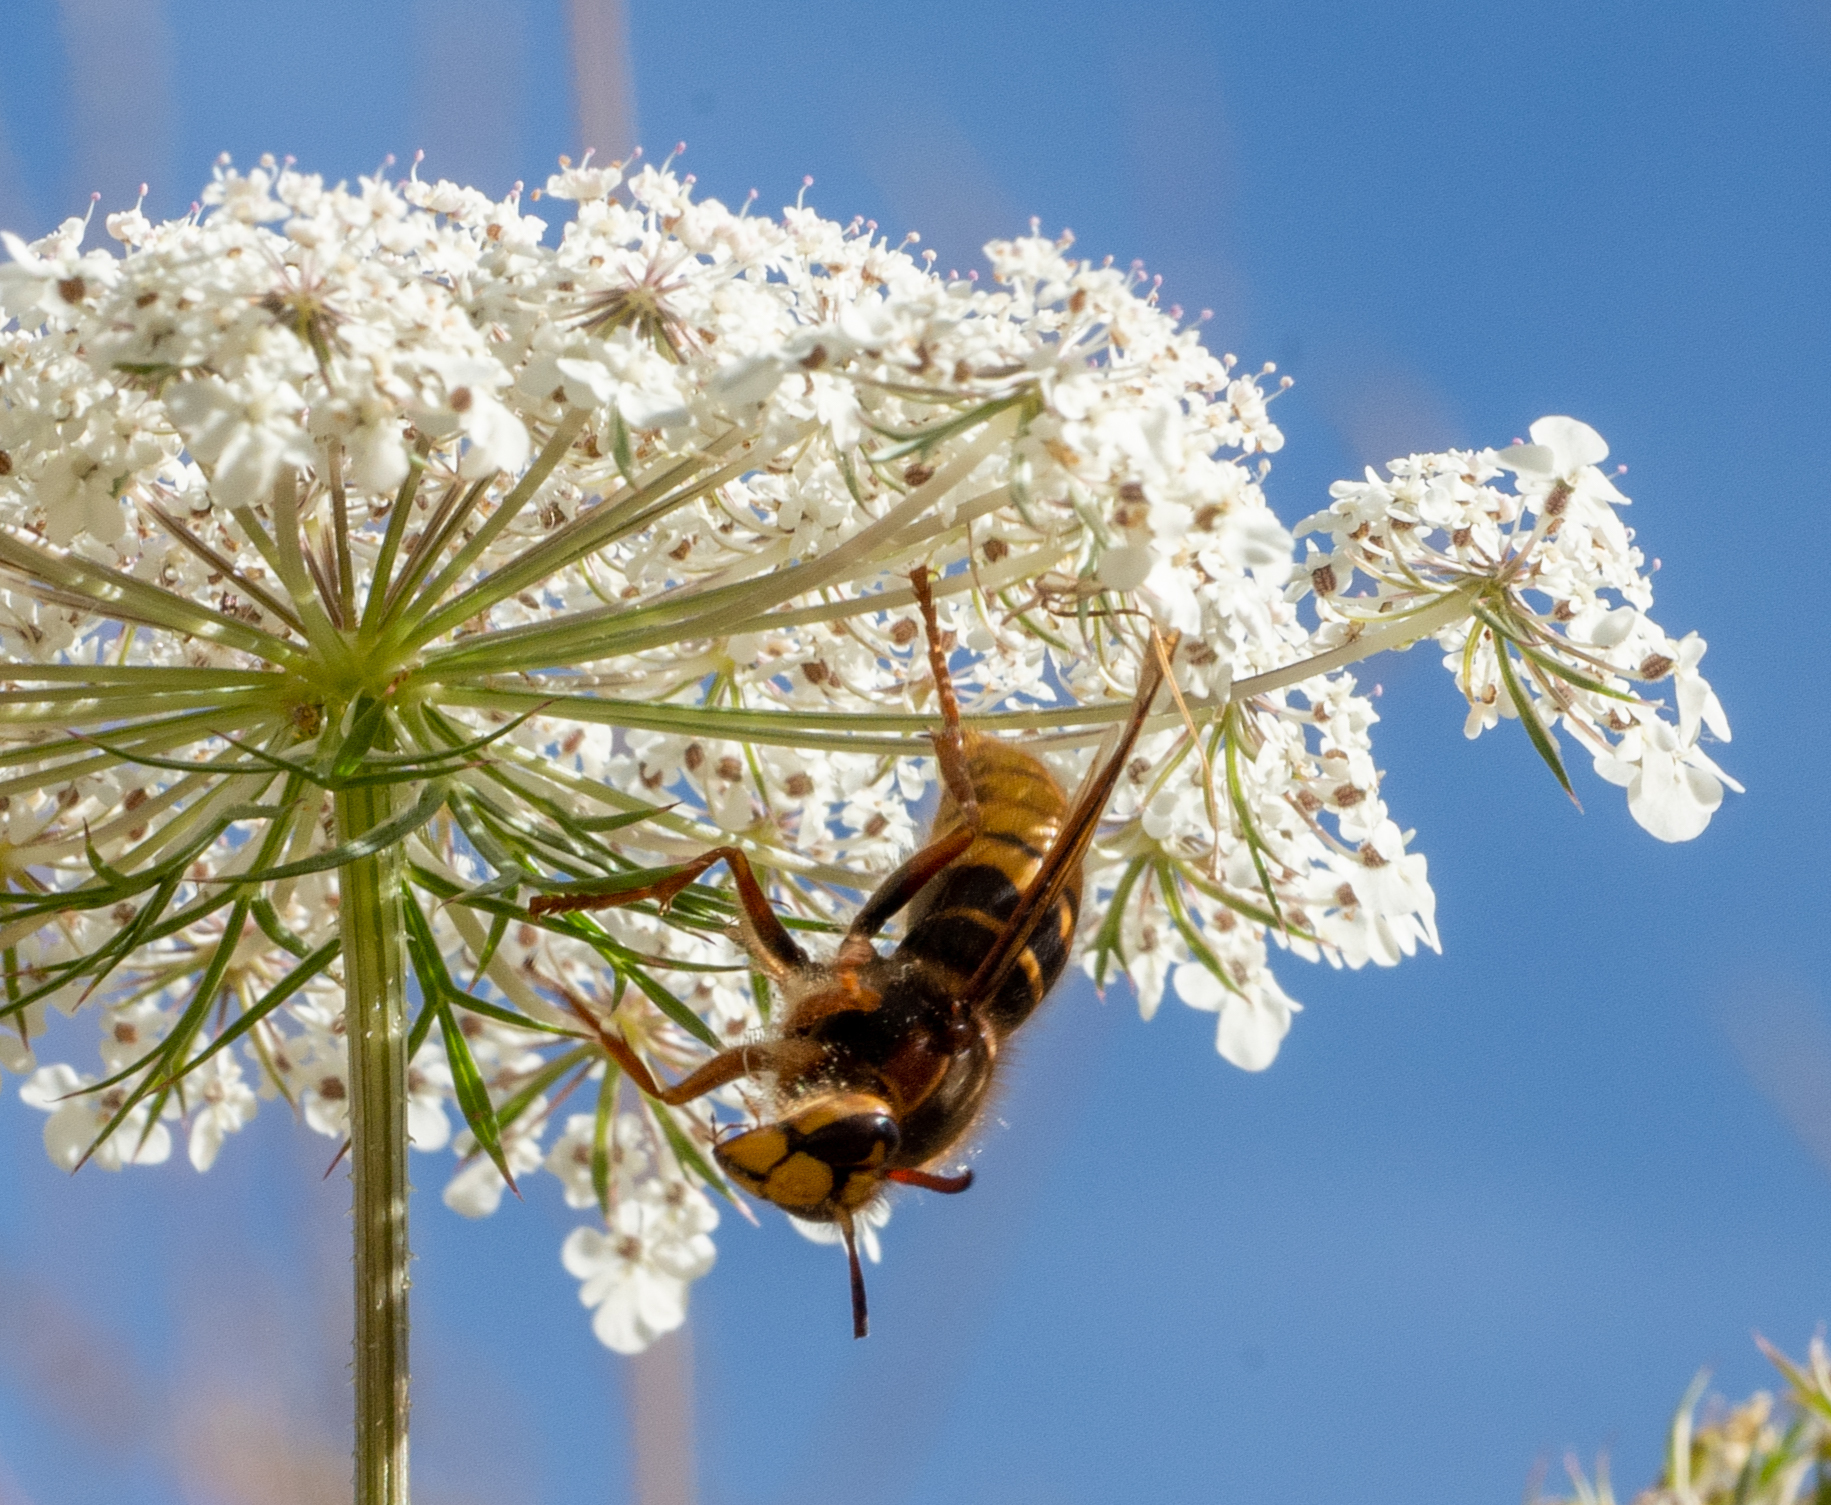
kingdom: Animalia
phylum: Arthropoda
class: Insecta
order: Hymenoptera
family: Vespidae
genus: Dolichovespula
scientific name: Dolichovespula media
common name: Median wasp
